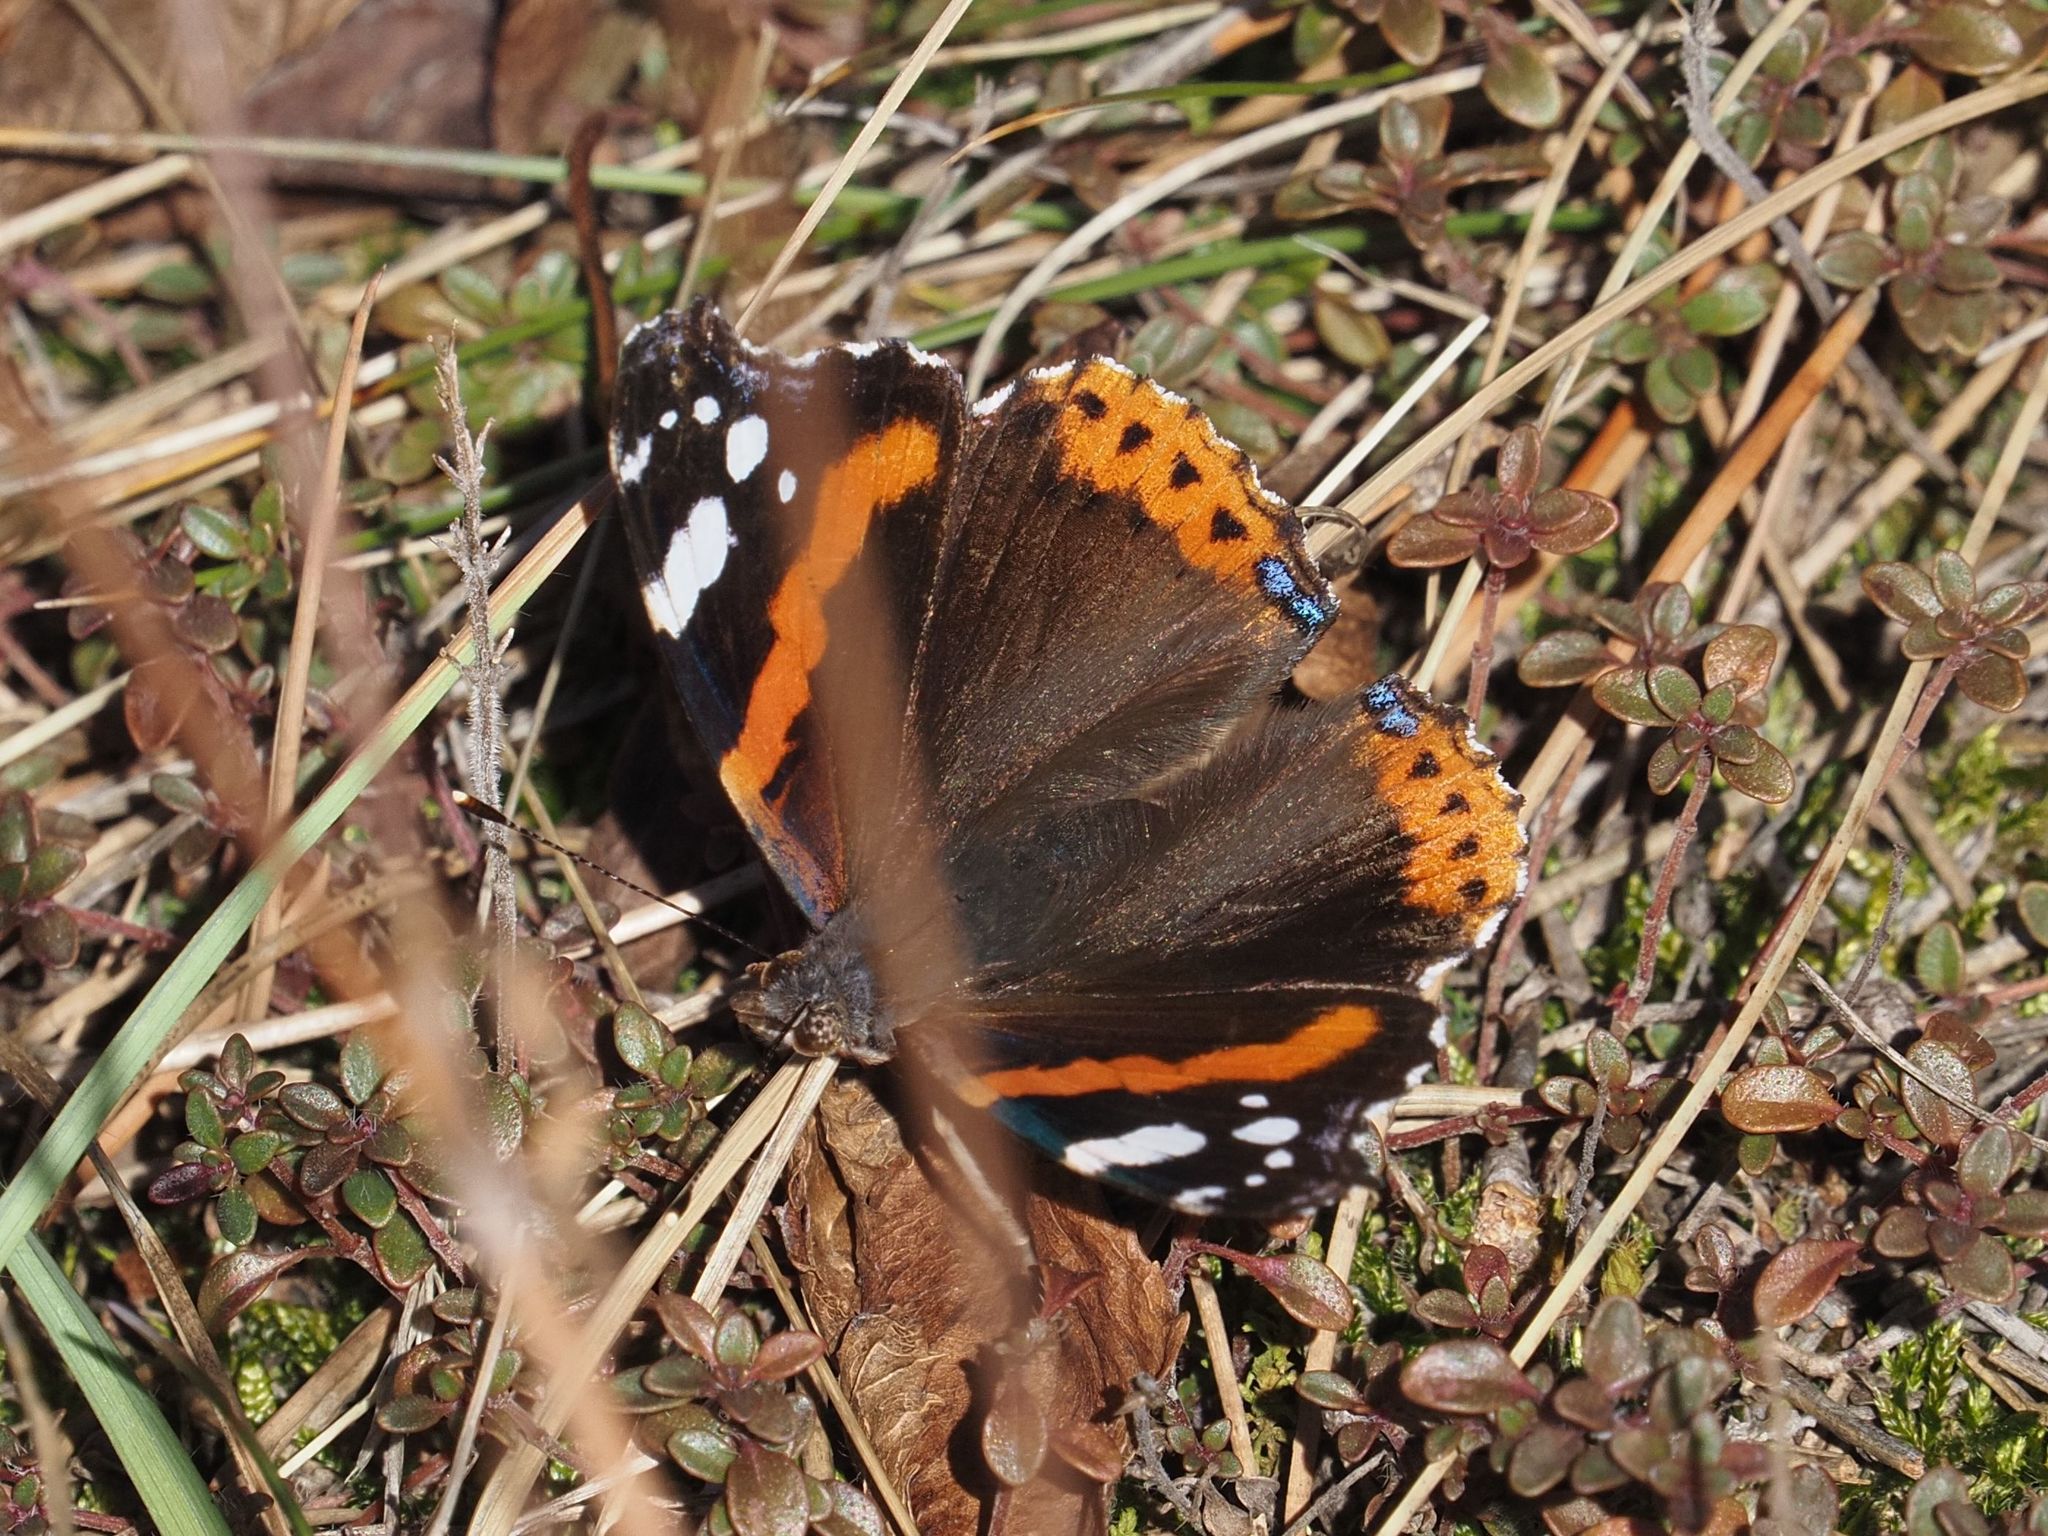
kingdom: Animalia
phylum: Arthropoda
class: Insecta
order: Lepidoptera
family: Nymphalidae
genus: Vanessa
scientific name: Vanessa atalanta
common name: Red admiral
